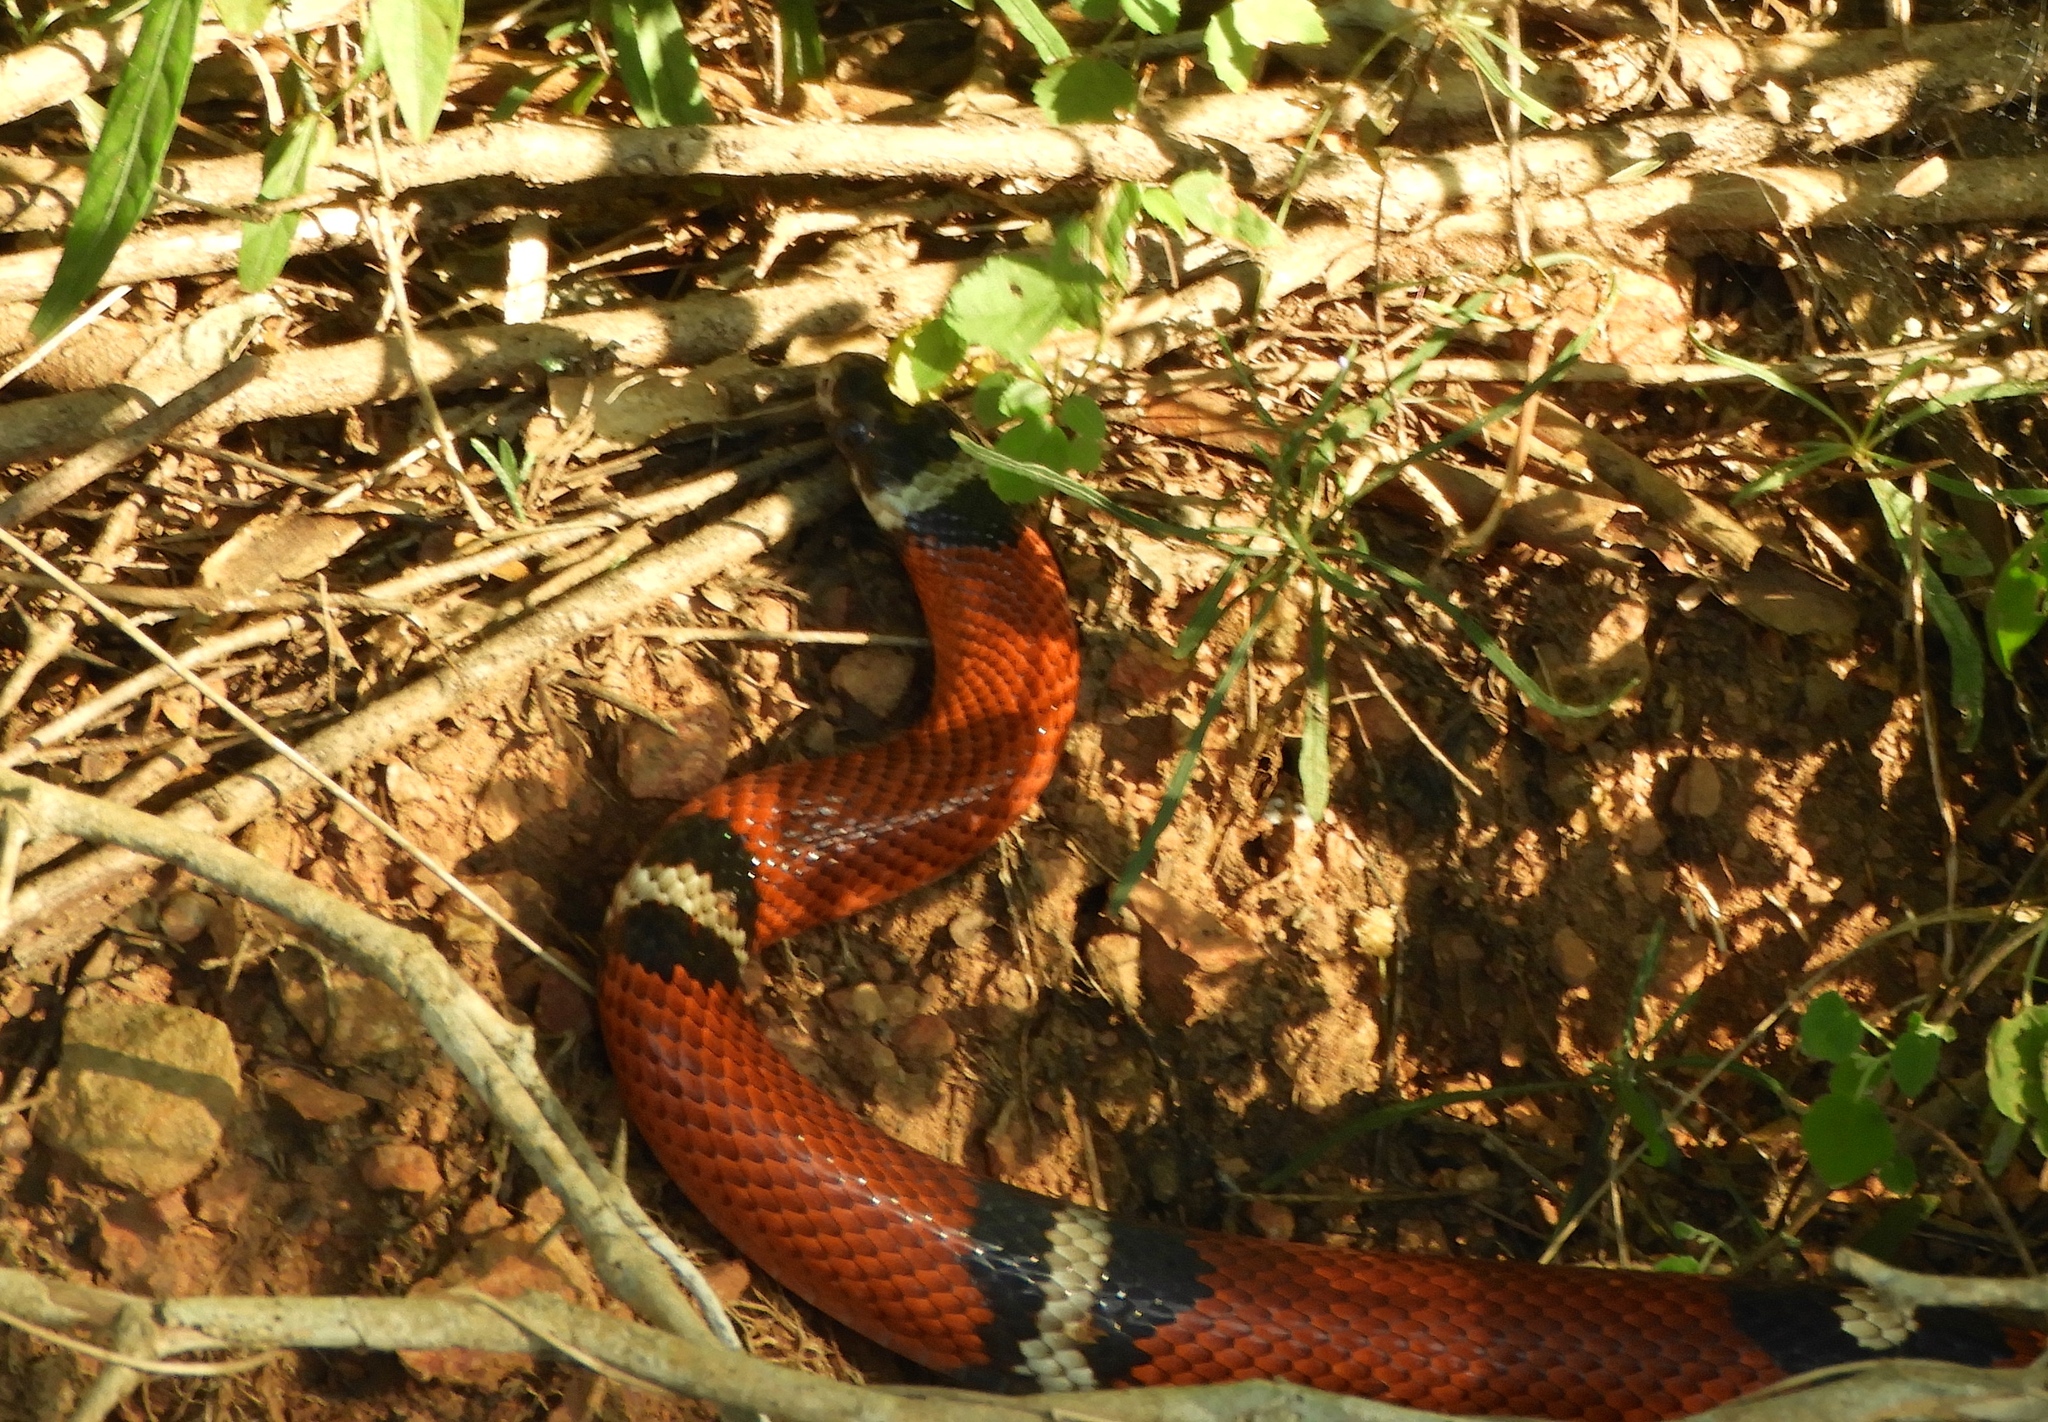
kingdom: Animalia
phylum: Chordata
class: Squamata
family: Colubridae
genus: Lampropeltis
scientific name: Lampropeltis polyzona
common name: Atlantic central american milksnake
